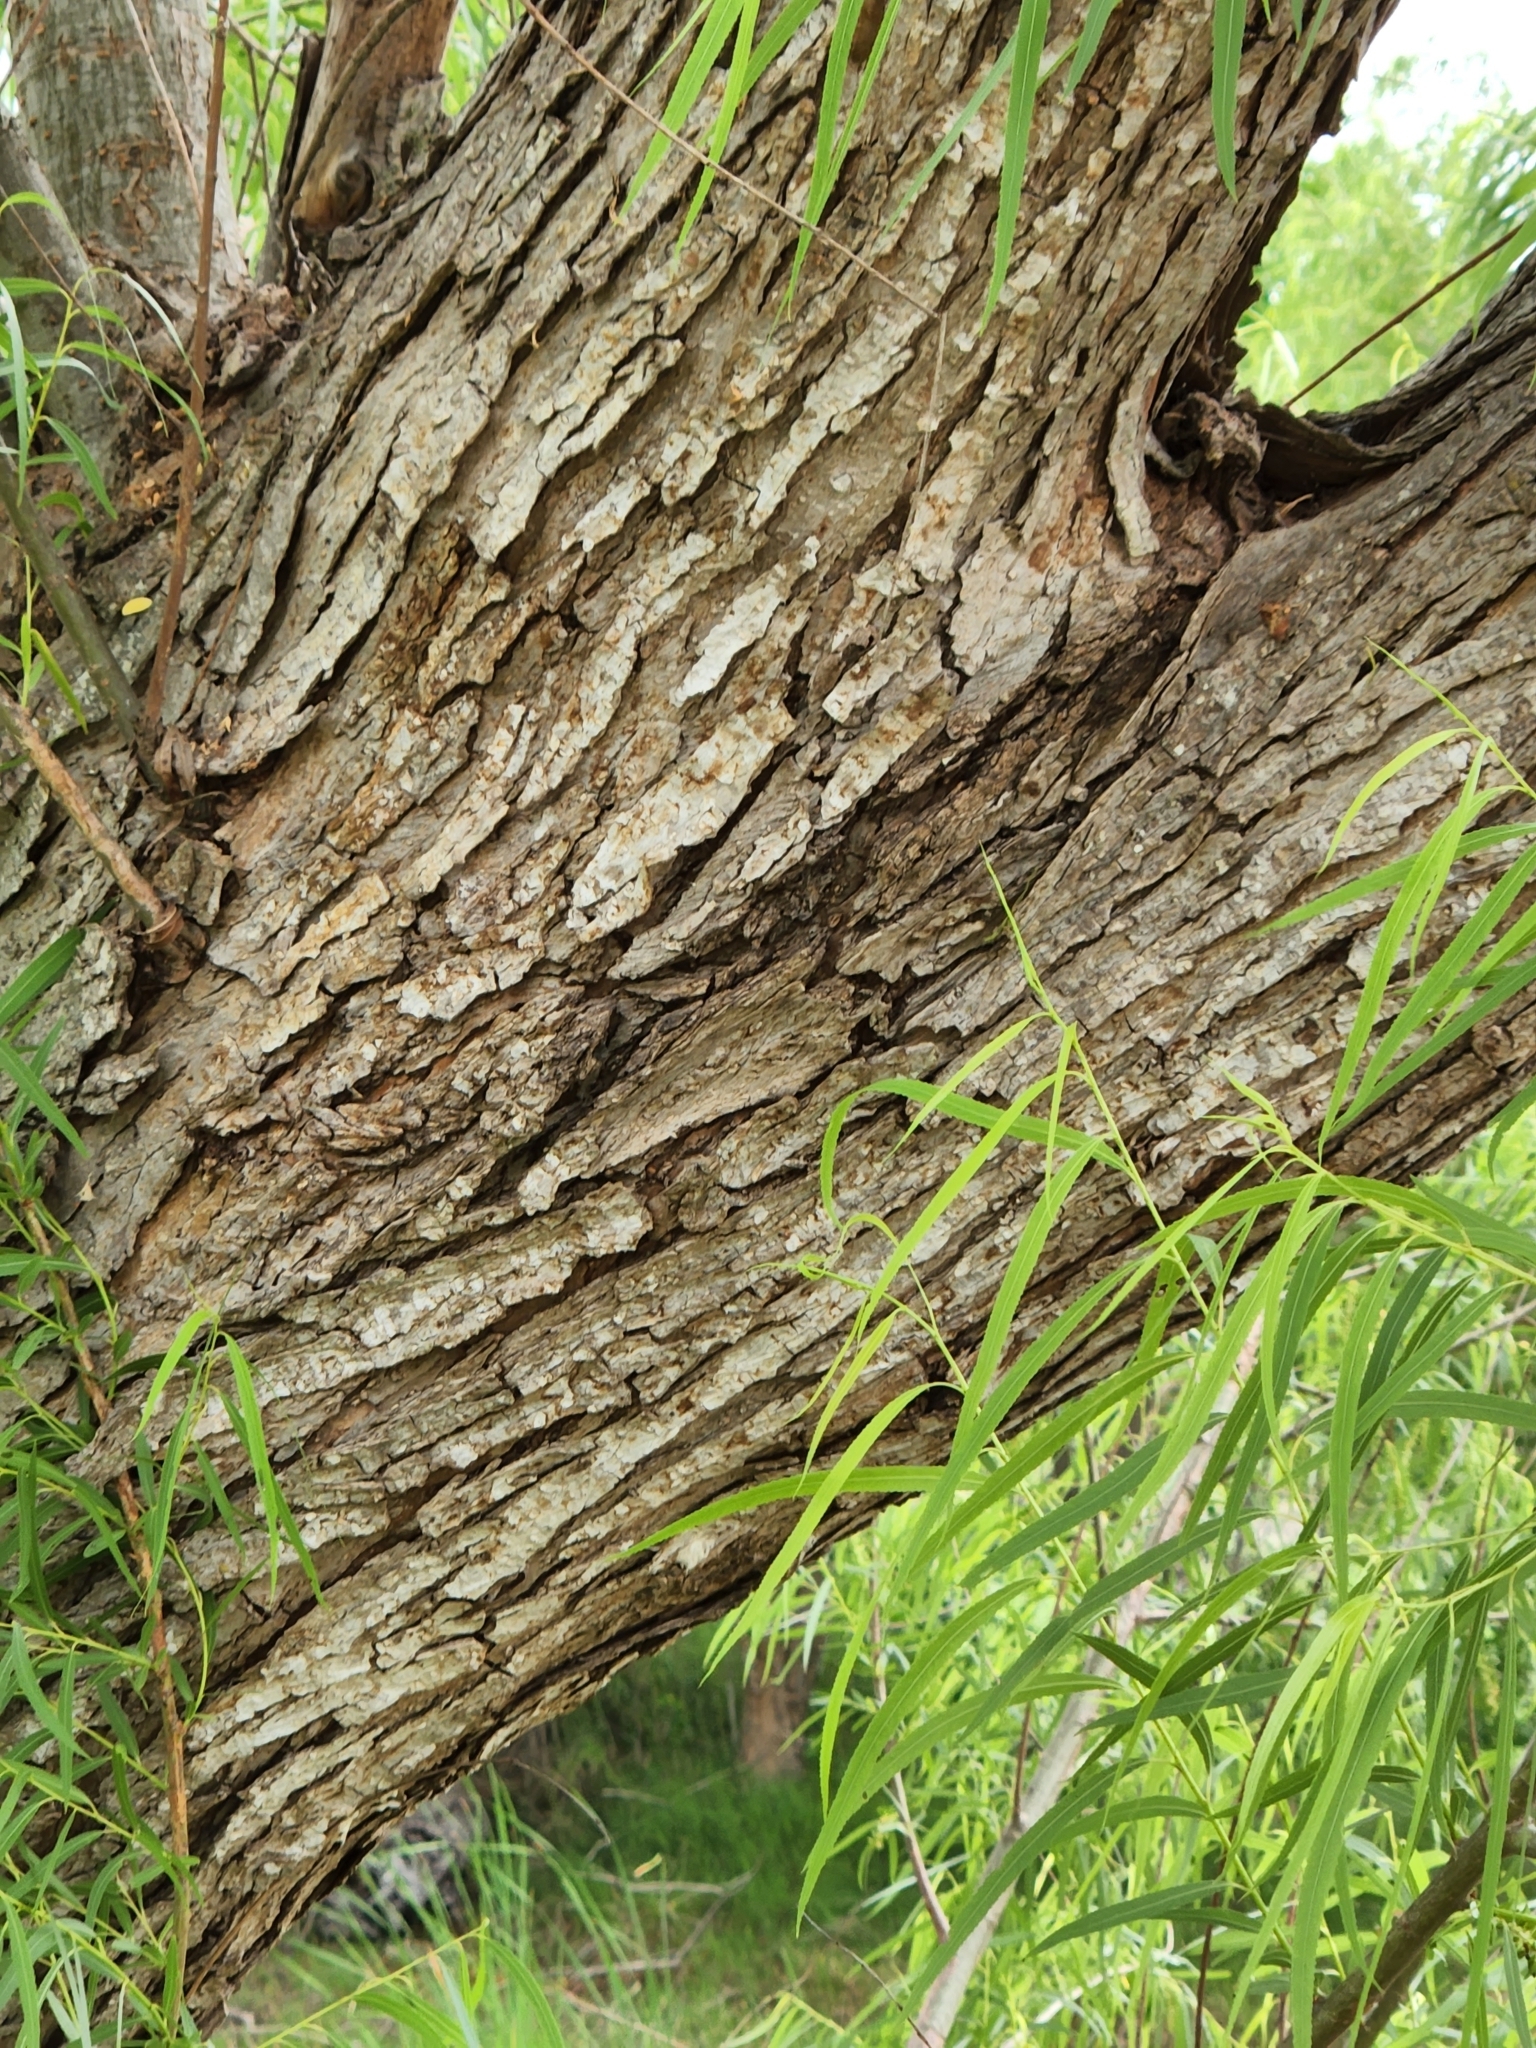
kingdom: Plantae
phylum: Tracheophyta
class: Magnoliopsida
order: Malpighiales
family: Salicaceae
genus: Salix
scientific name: Salix nigra
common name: Black willow
